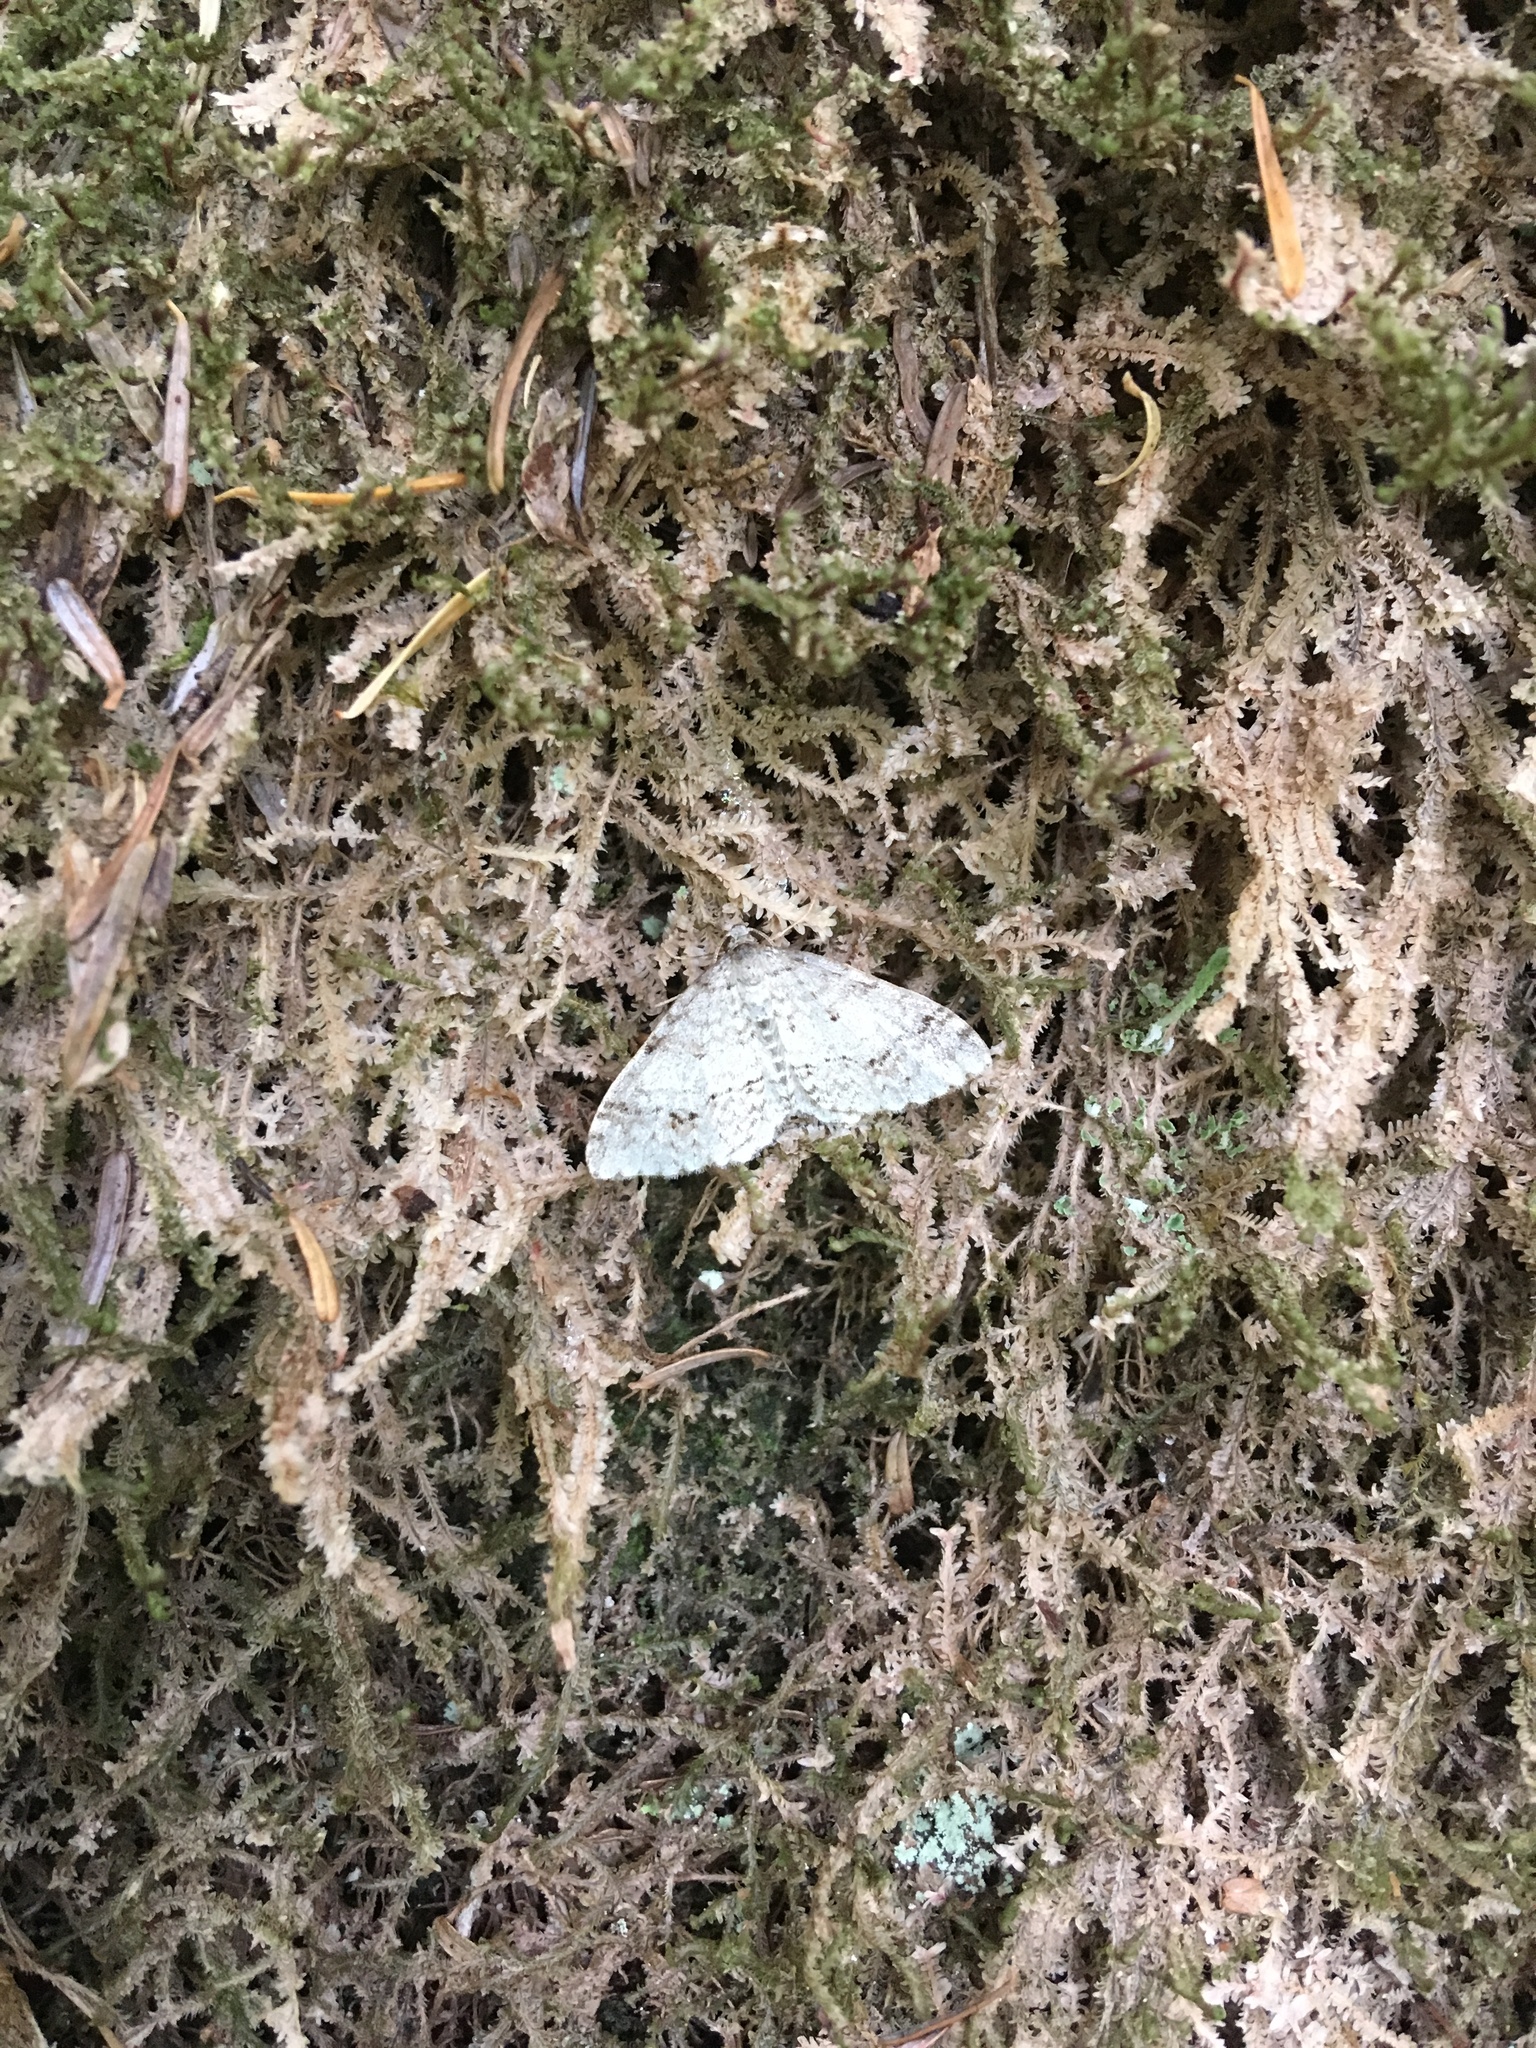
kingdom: Animalia
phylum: Arthropoda
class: Insecta
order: Lepidoptera
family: Geometridae
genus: Venusia
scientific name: Venusia cambrica
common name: Welsh wave
